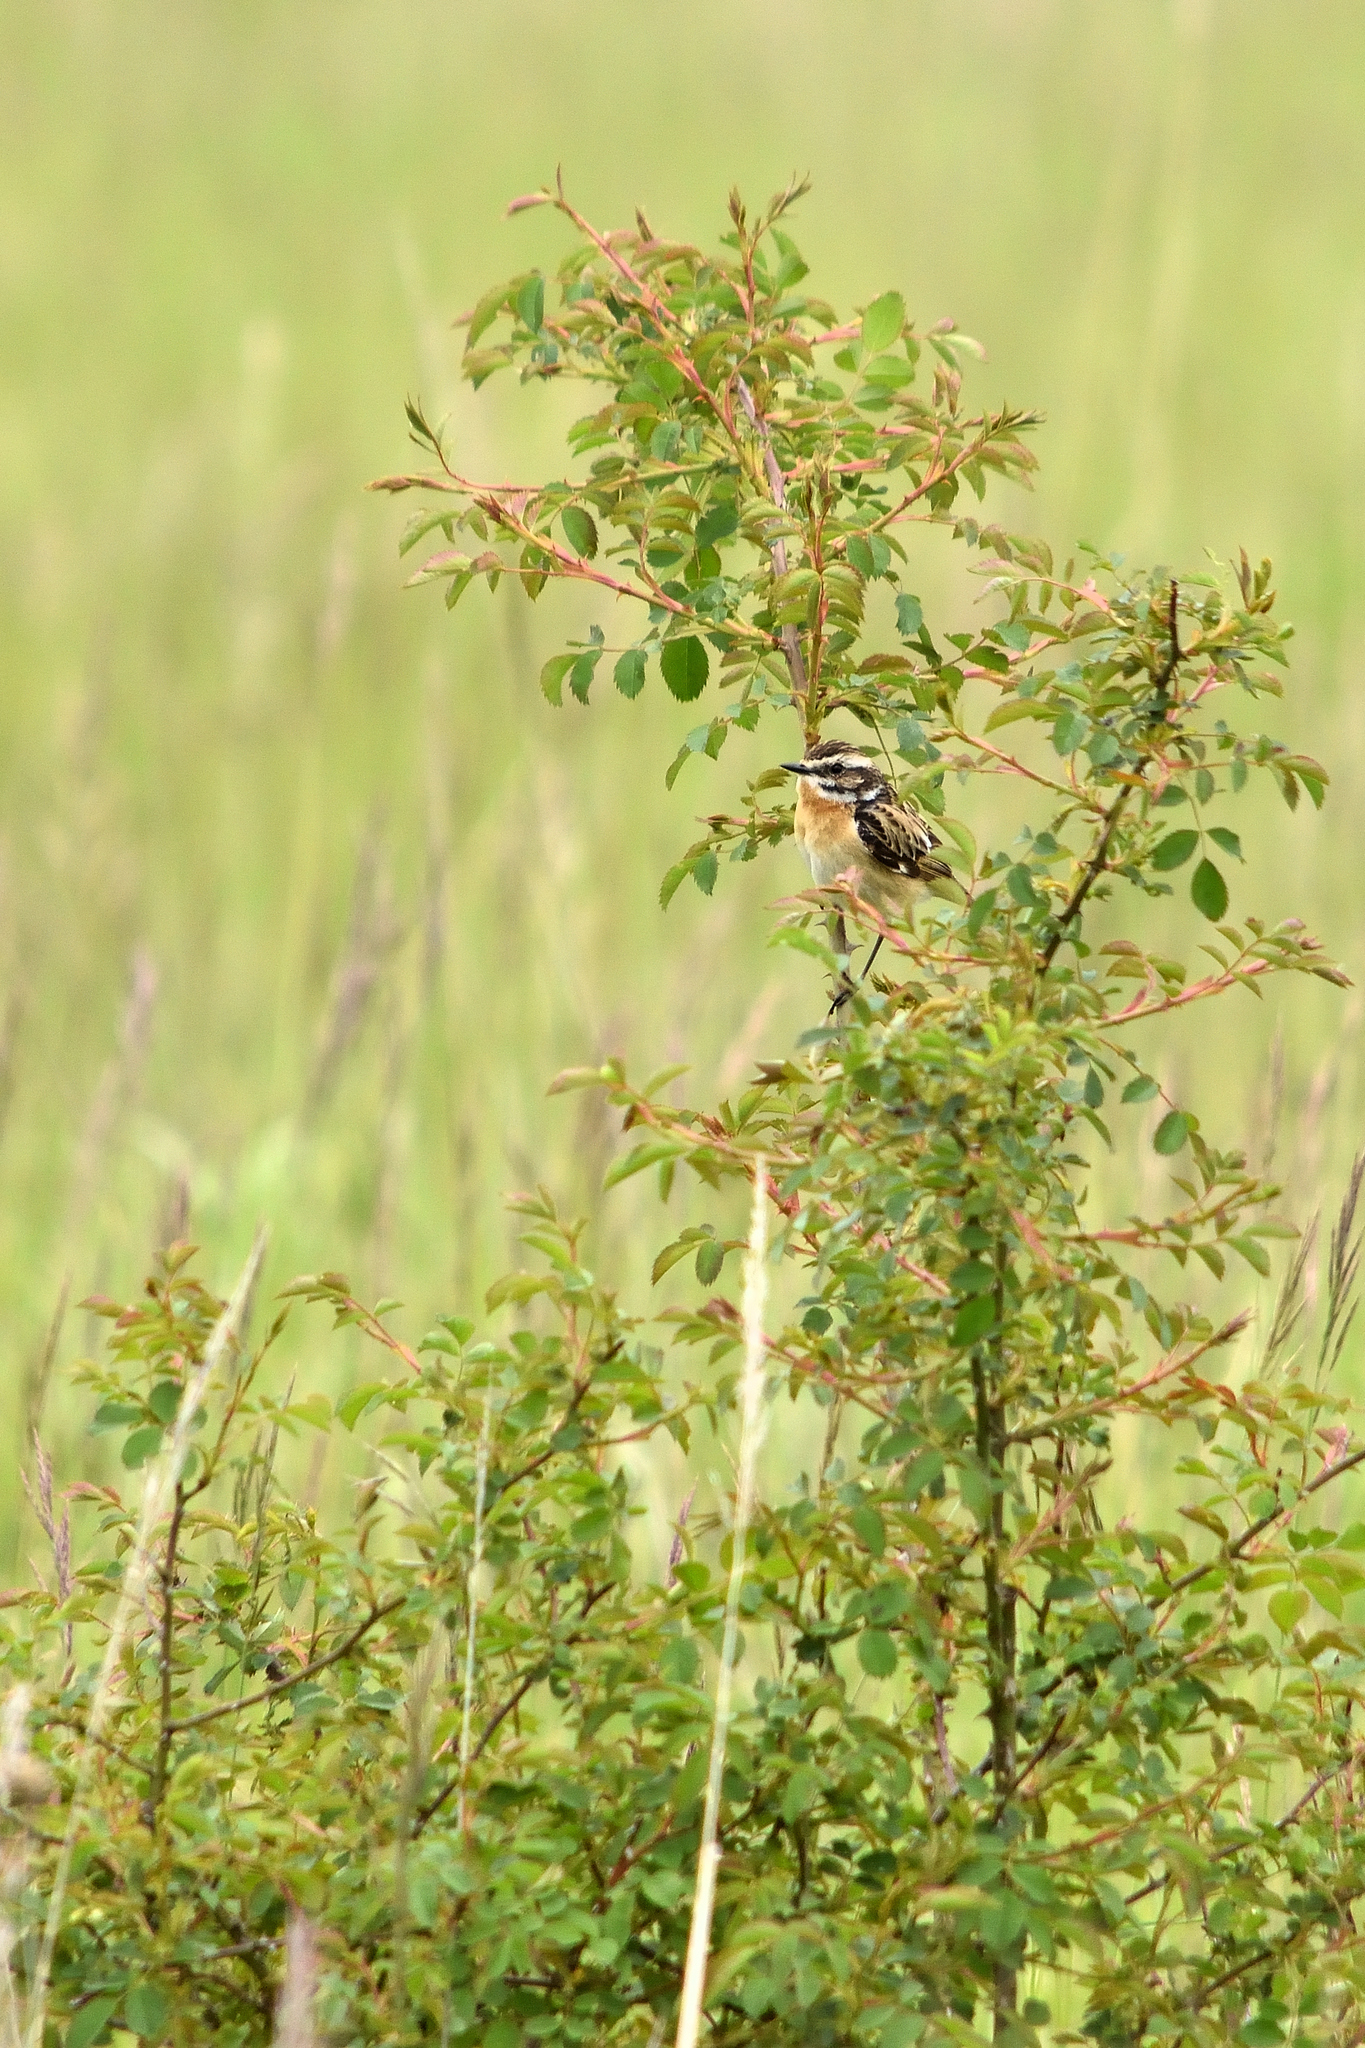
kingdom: Animalia
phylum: Chordata
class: Aves
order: Passeriformes
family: Muscicapidae
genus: Saxicola
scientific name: Saxicola rubetra
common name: Whinchat
